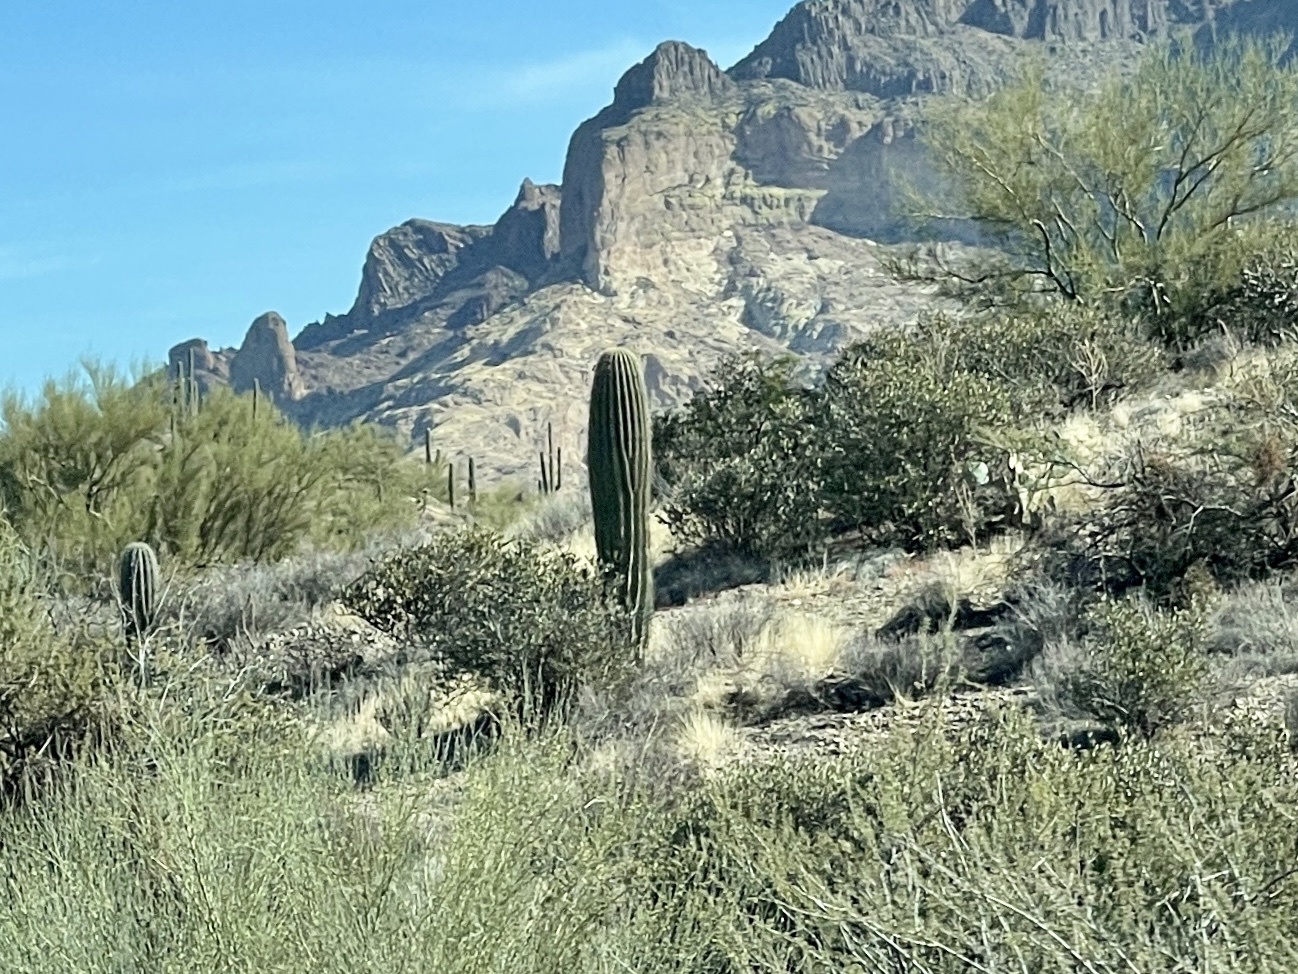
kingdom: Plantae
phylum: Tracheophyta
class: Magnoliopsida
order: Caryophyllales
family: Cactaceae
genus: Carnegiea
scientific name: Carnegiea gigantea
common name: Saguaro
